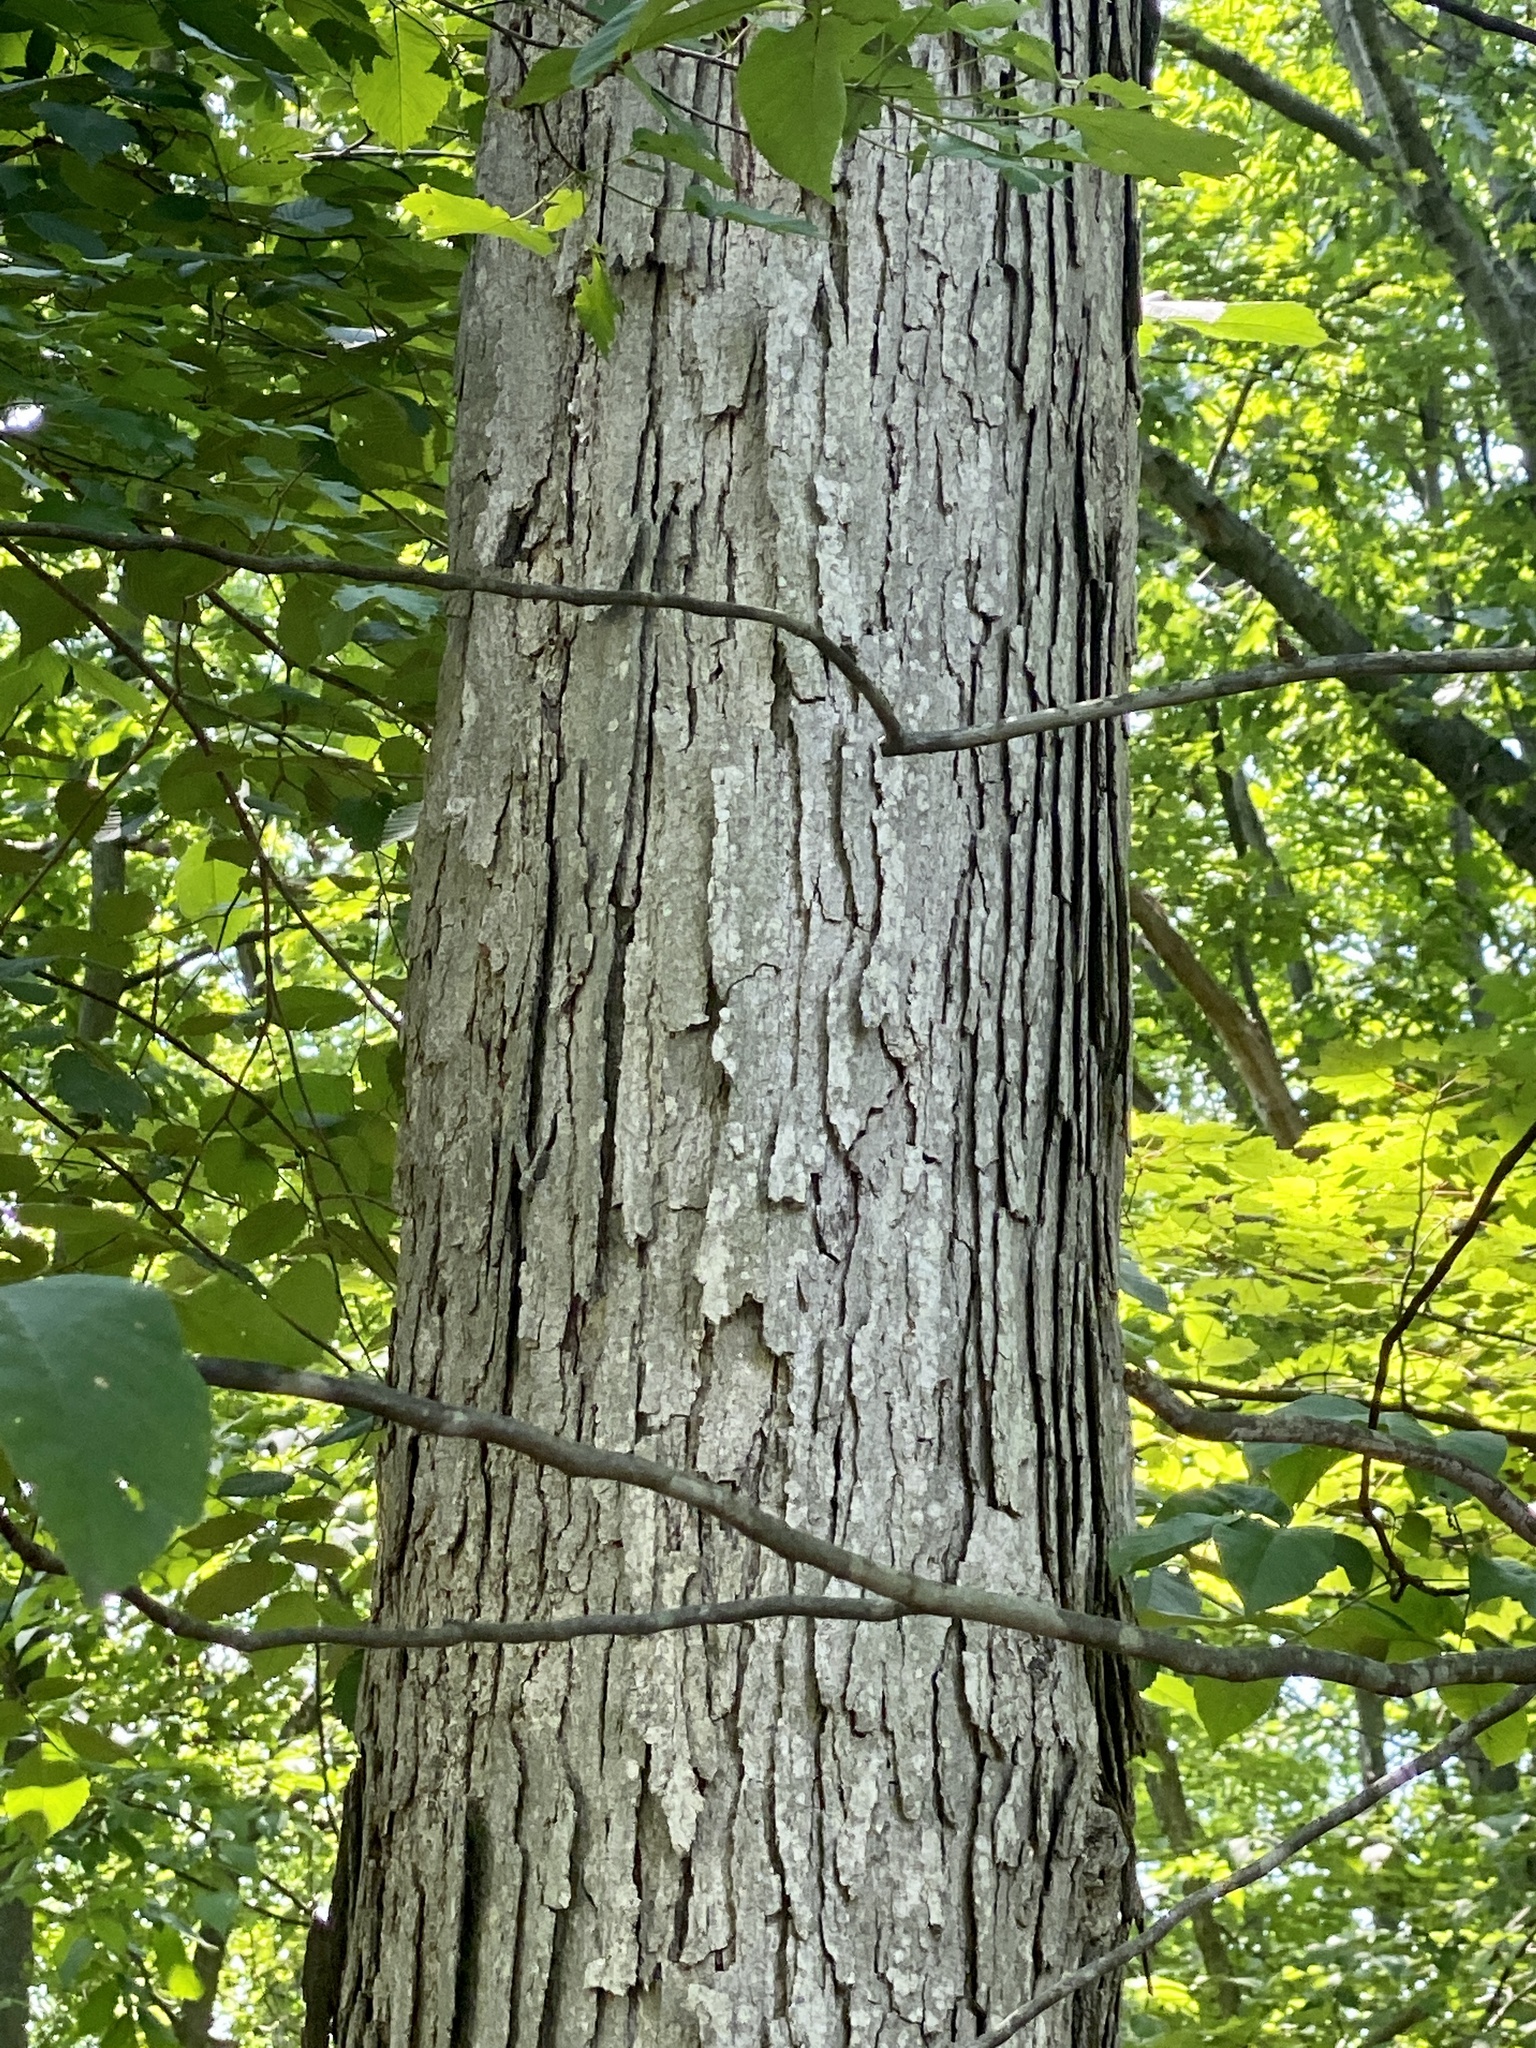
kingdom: Plantae
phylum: Tracheophyta
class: Magnoliopsida
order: Fagales
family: Fagaceae
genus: Quercus
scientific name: Quercus alba
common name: White oak
